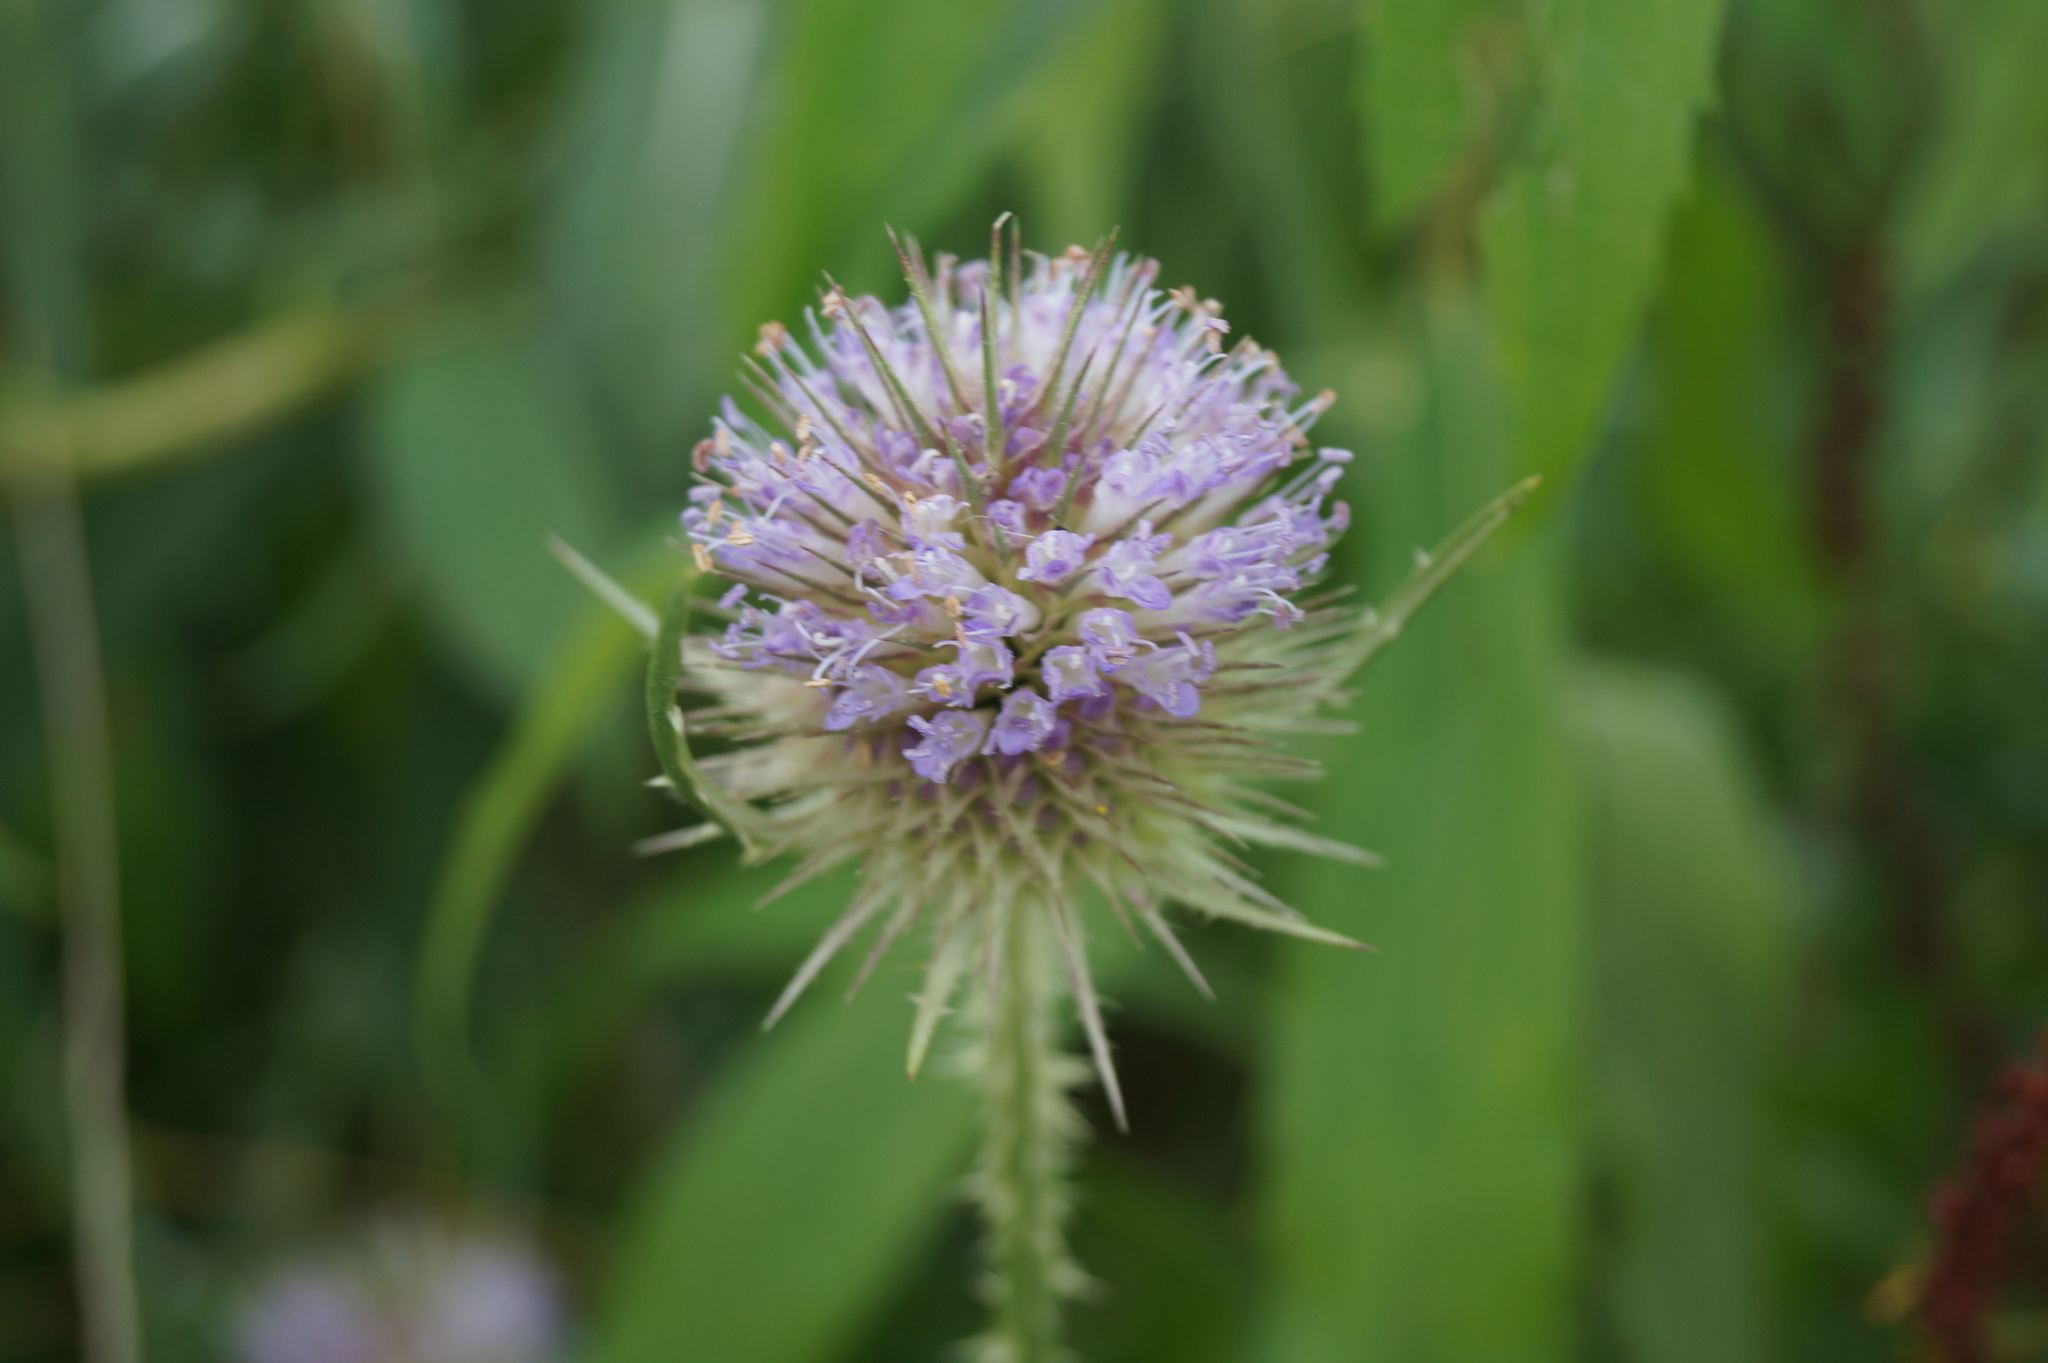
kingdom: Plantae
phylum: Tracheophyta
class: Magnoliopsida
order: Dipsacales
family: Caprifoliaceae
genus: Dipsacus
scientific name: Dipsacus fullonum
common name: Teasel
